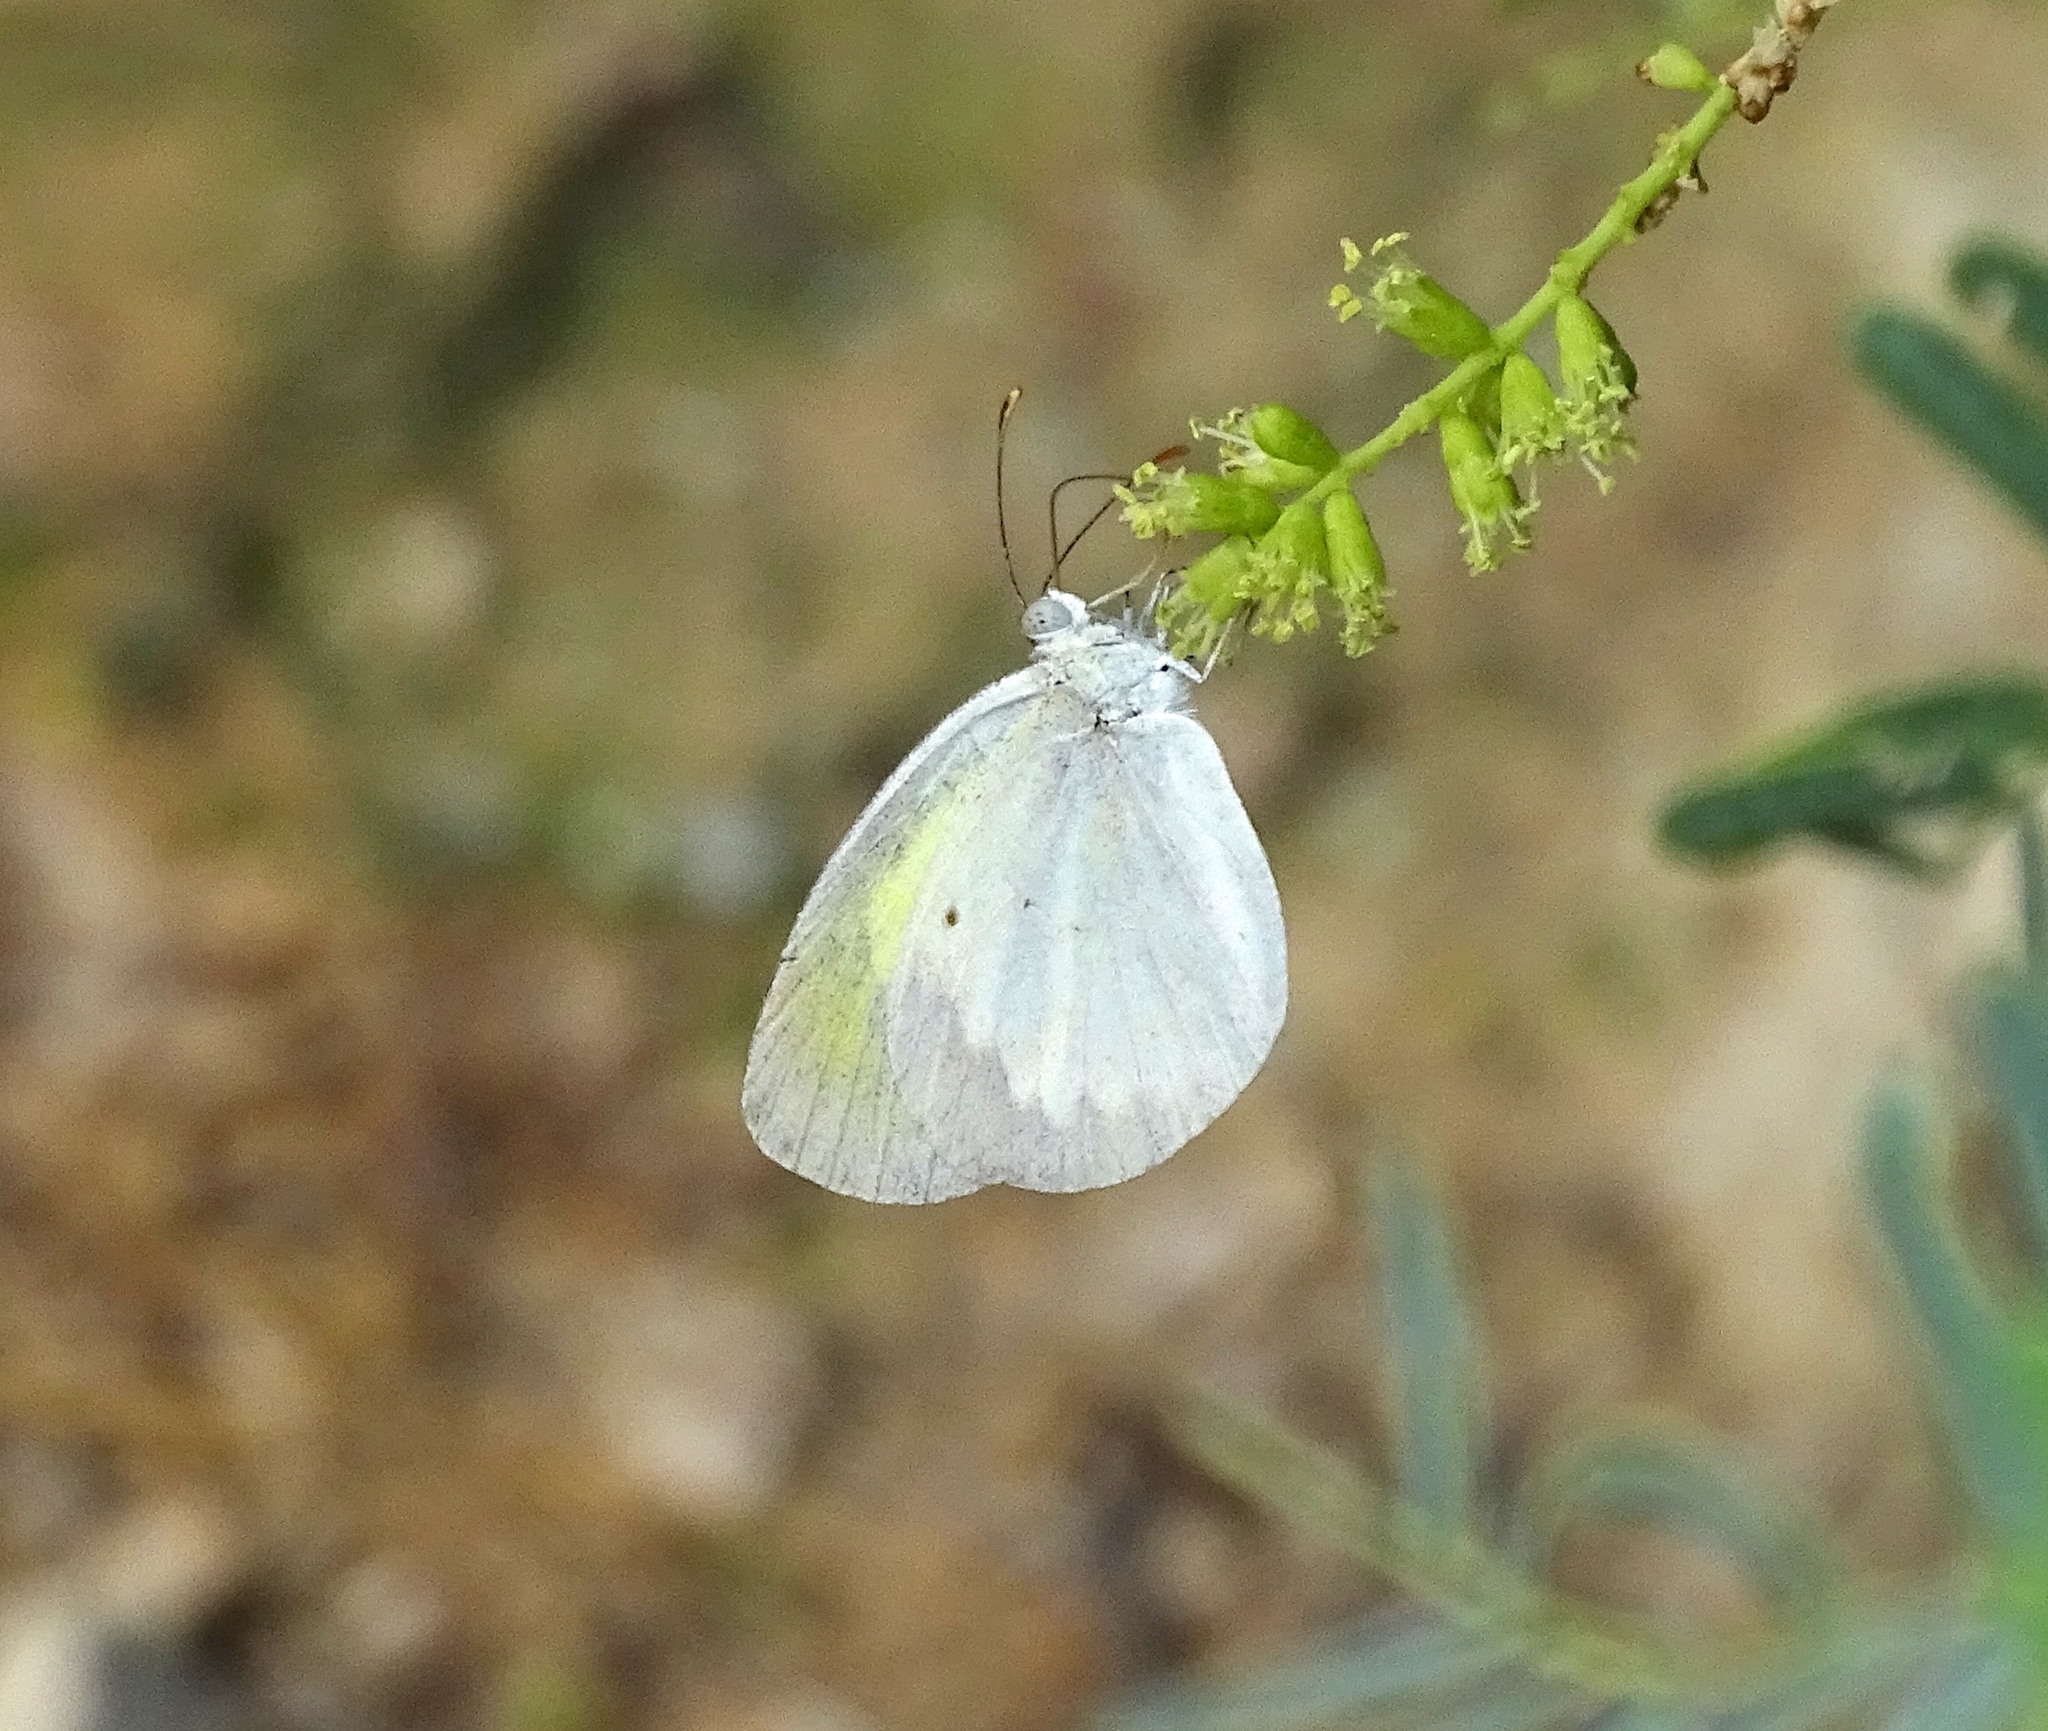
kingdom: Animalia
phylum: Arthropoda
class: Insecta
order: Lepidoptera
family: Pieridae
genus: Eurema
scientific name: Eurema elathea
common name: Banded yellow
